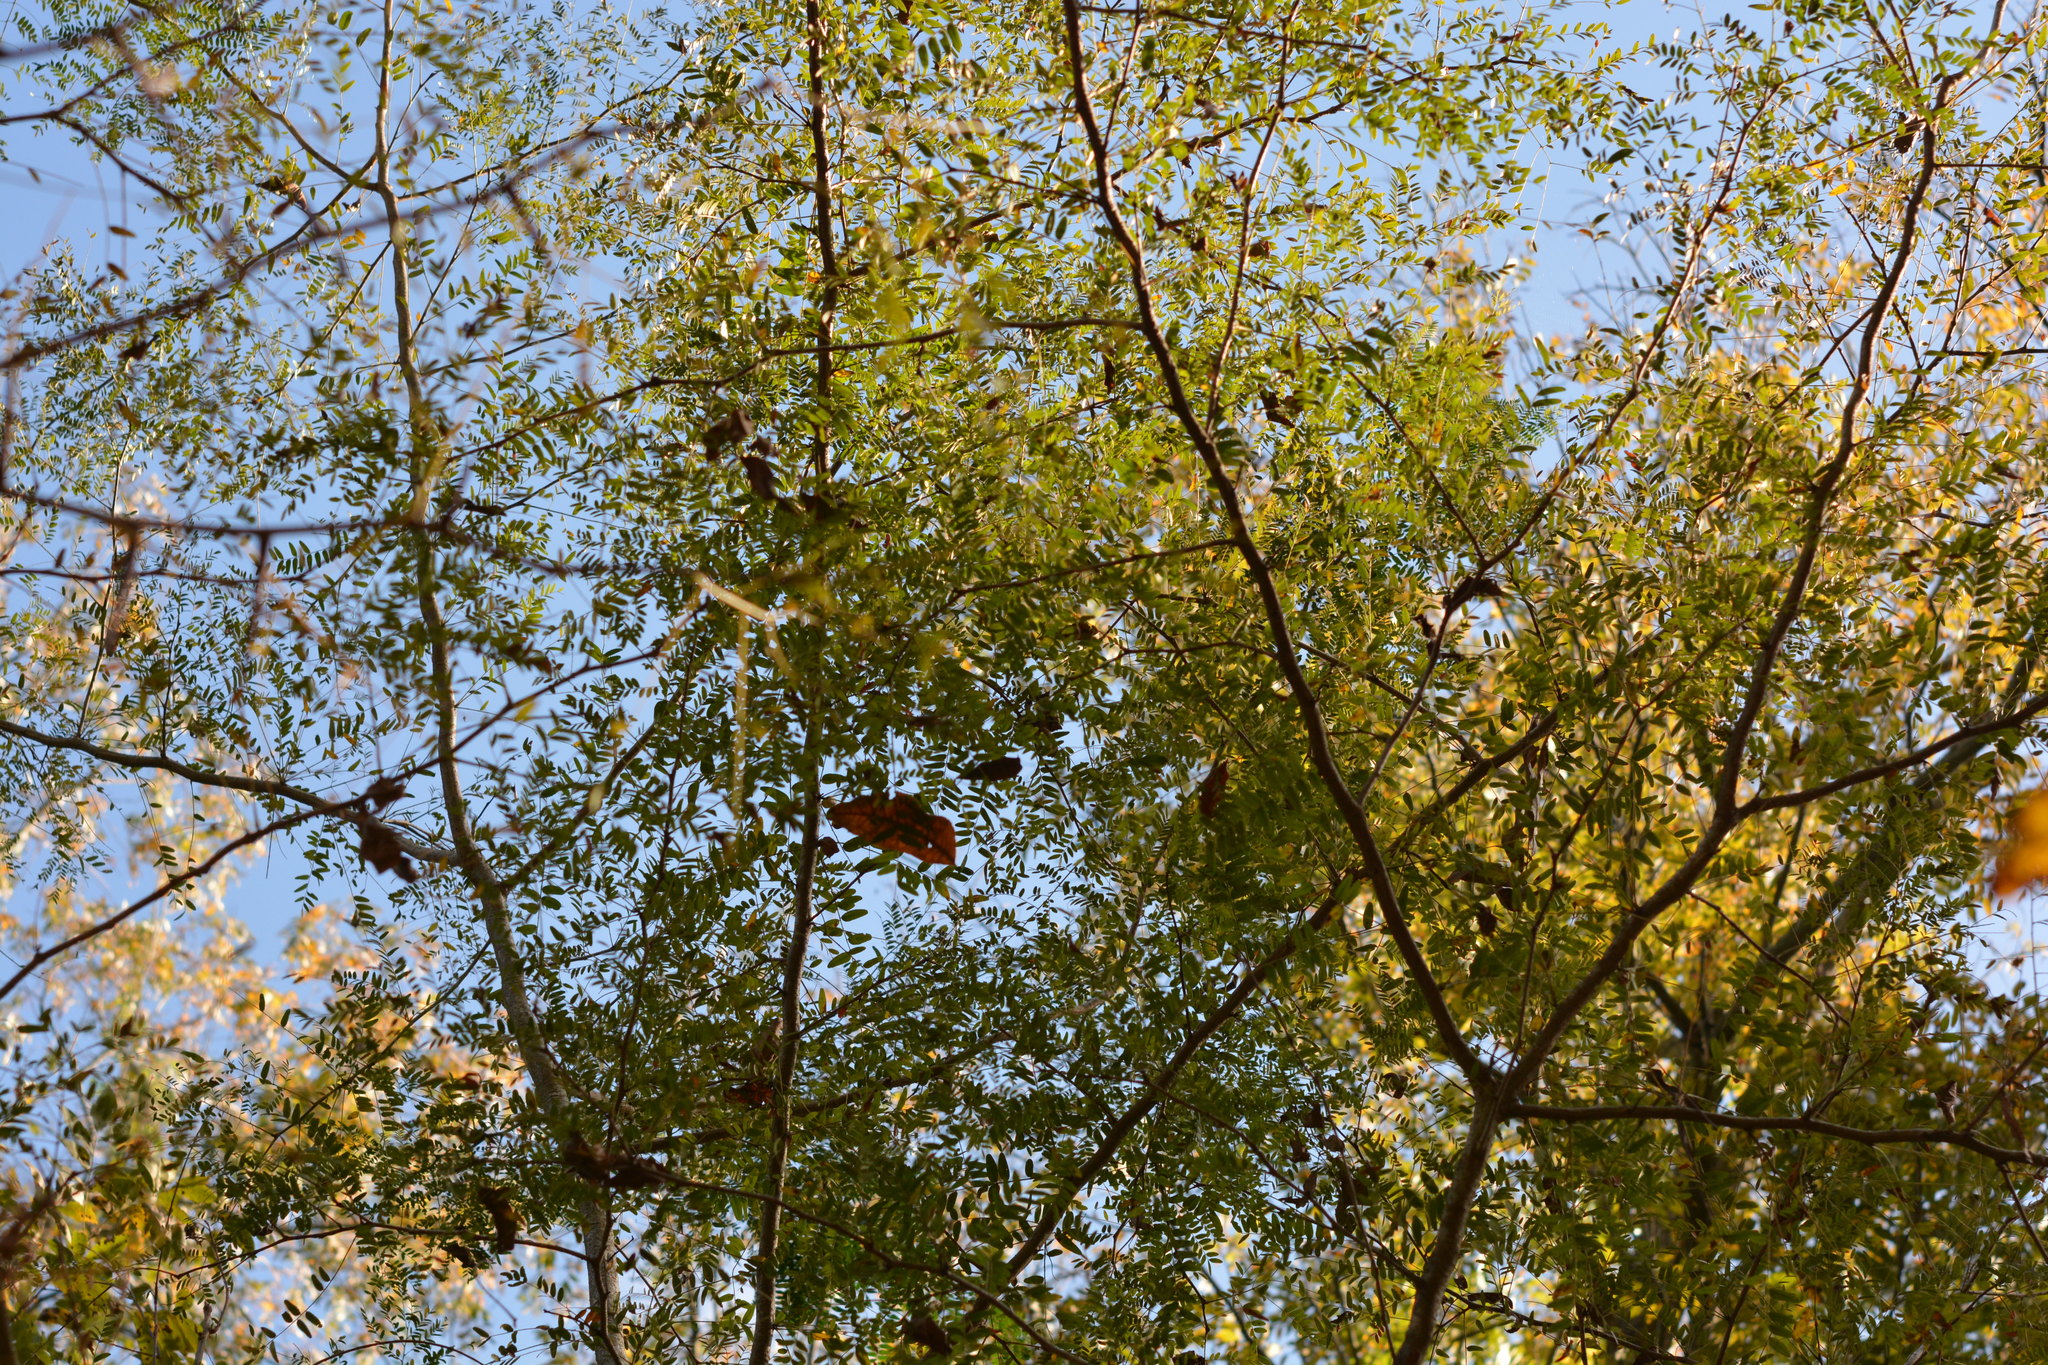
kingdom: Plantae
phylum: Tracheophyta
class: Magnoliopsida
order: Fabales
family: Fabaceae
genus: Gleditsia
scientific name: Gleditsia triacanthos
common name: Common honeylocust
